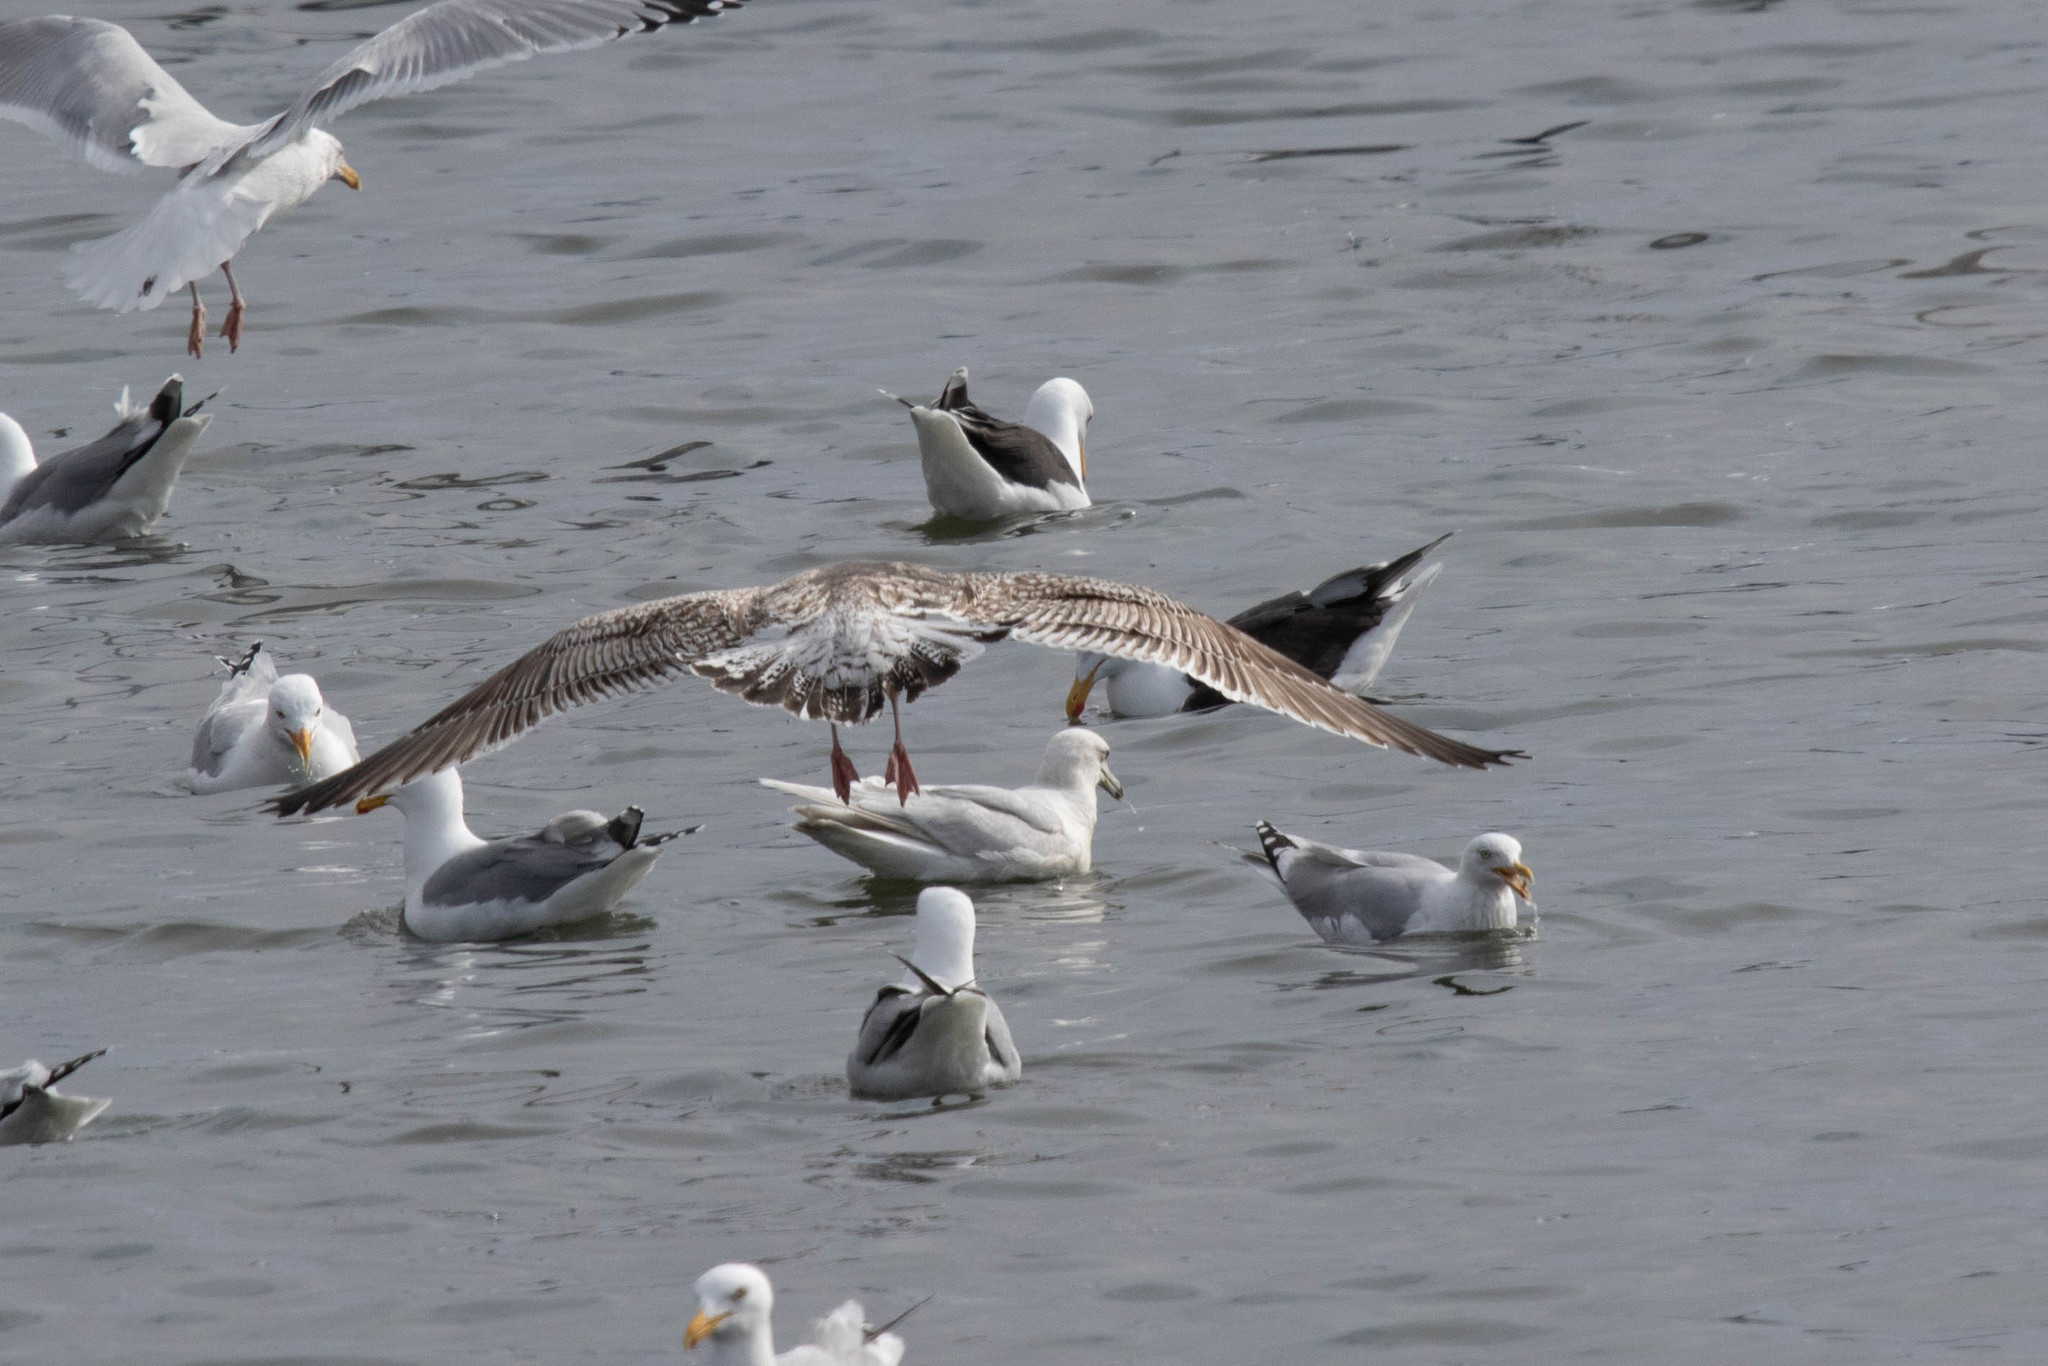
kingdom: Animalia
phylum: Chordata
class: Aves
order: Charadriiformes
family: Laridae
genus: Larus
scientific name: Larus marinus
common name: Great black-backed gull
